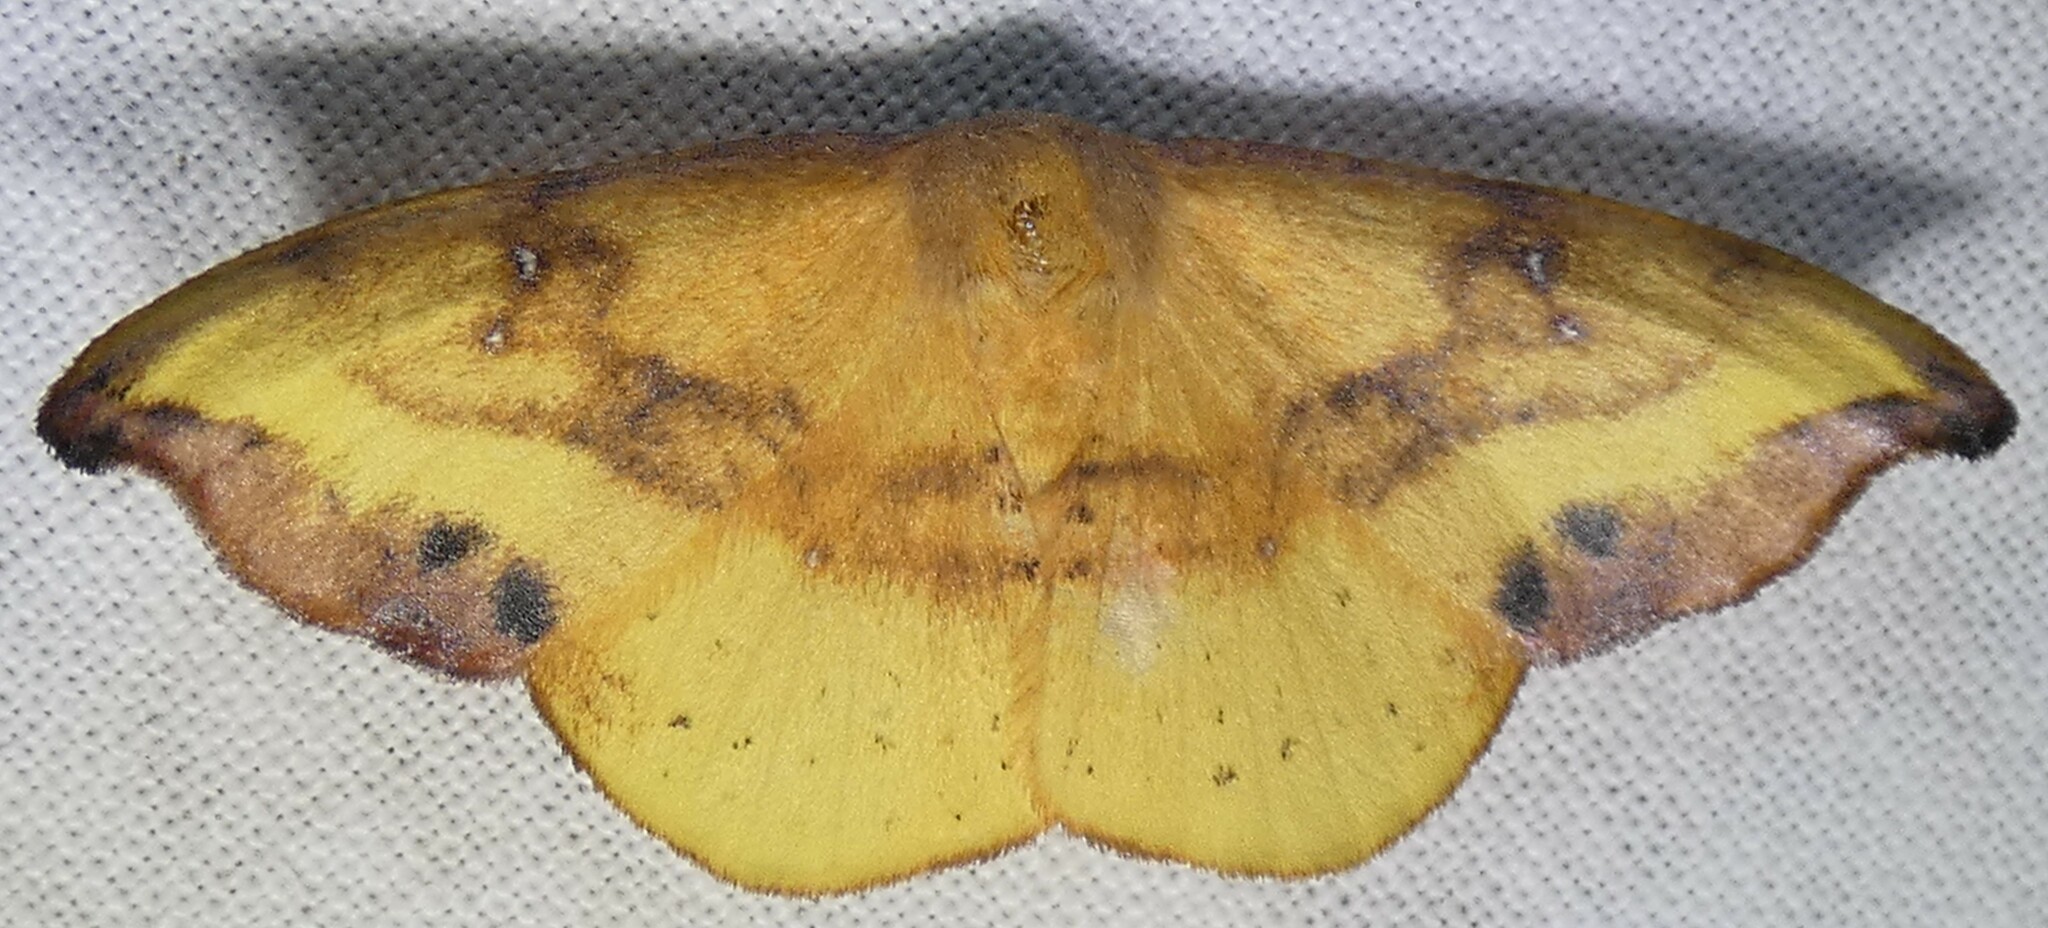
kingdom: Animalia
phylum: Arthropoda
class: Insecta
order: Lepidoptera
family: Drepanidae
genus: Oreta
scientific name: Oreta rosea
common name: Rose hooktip
